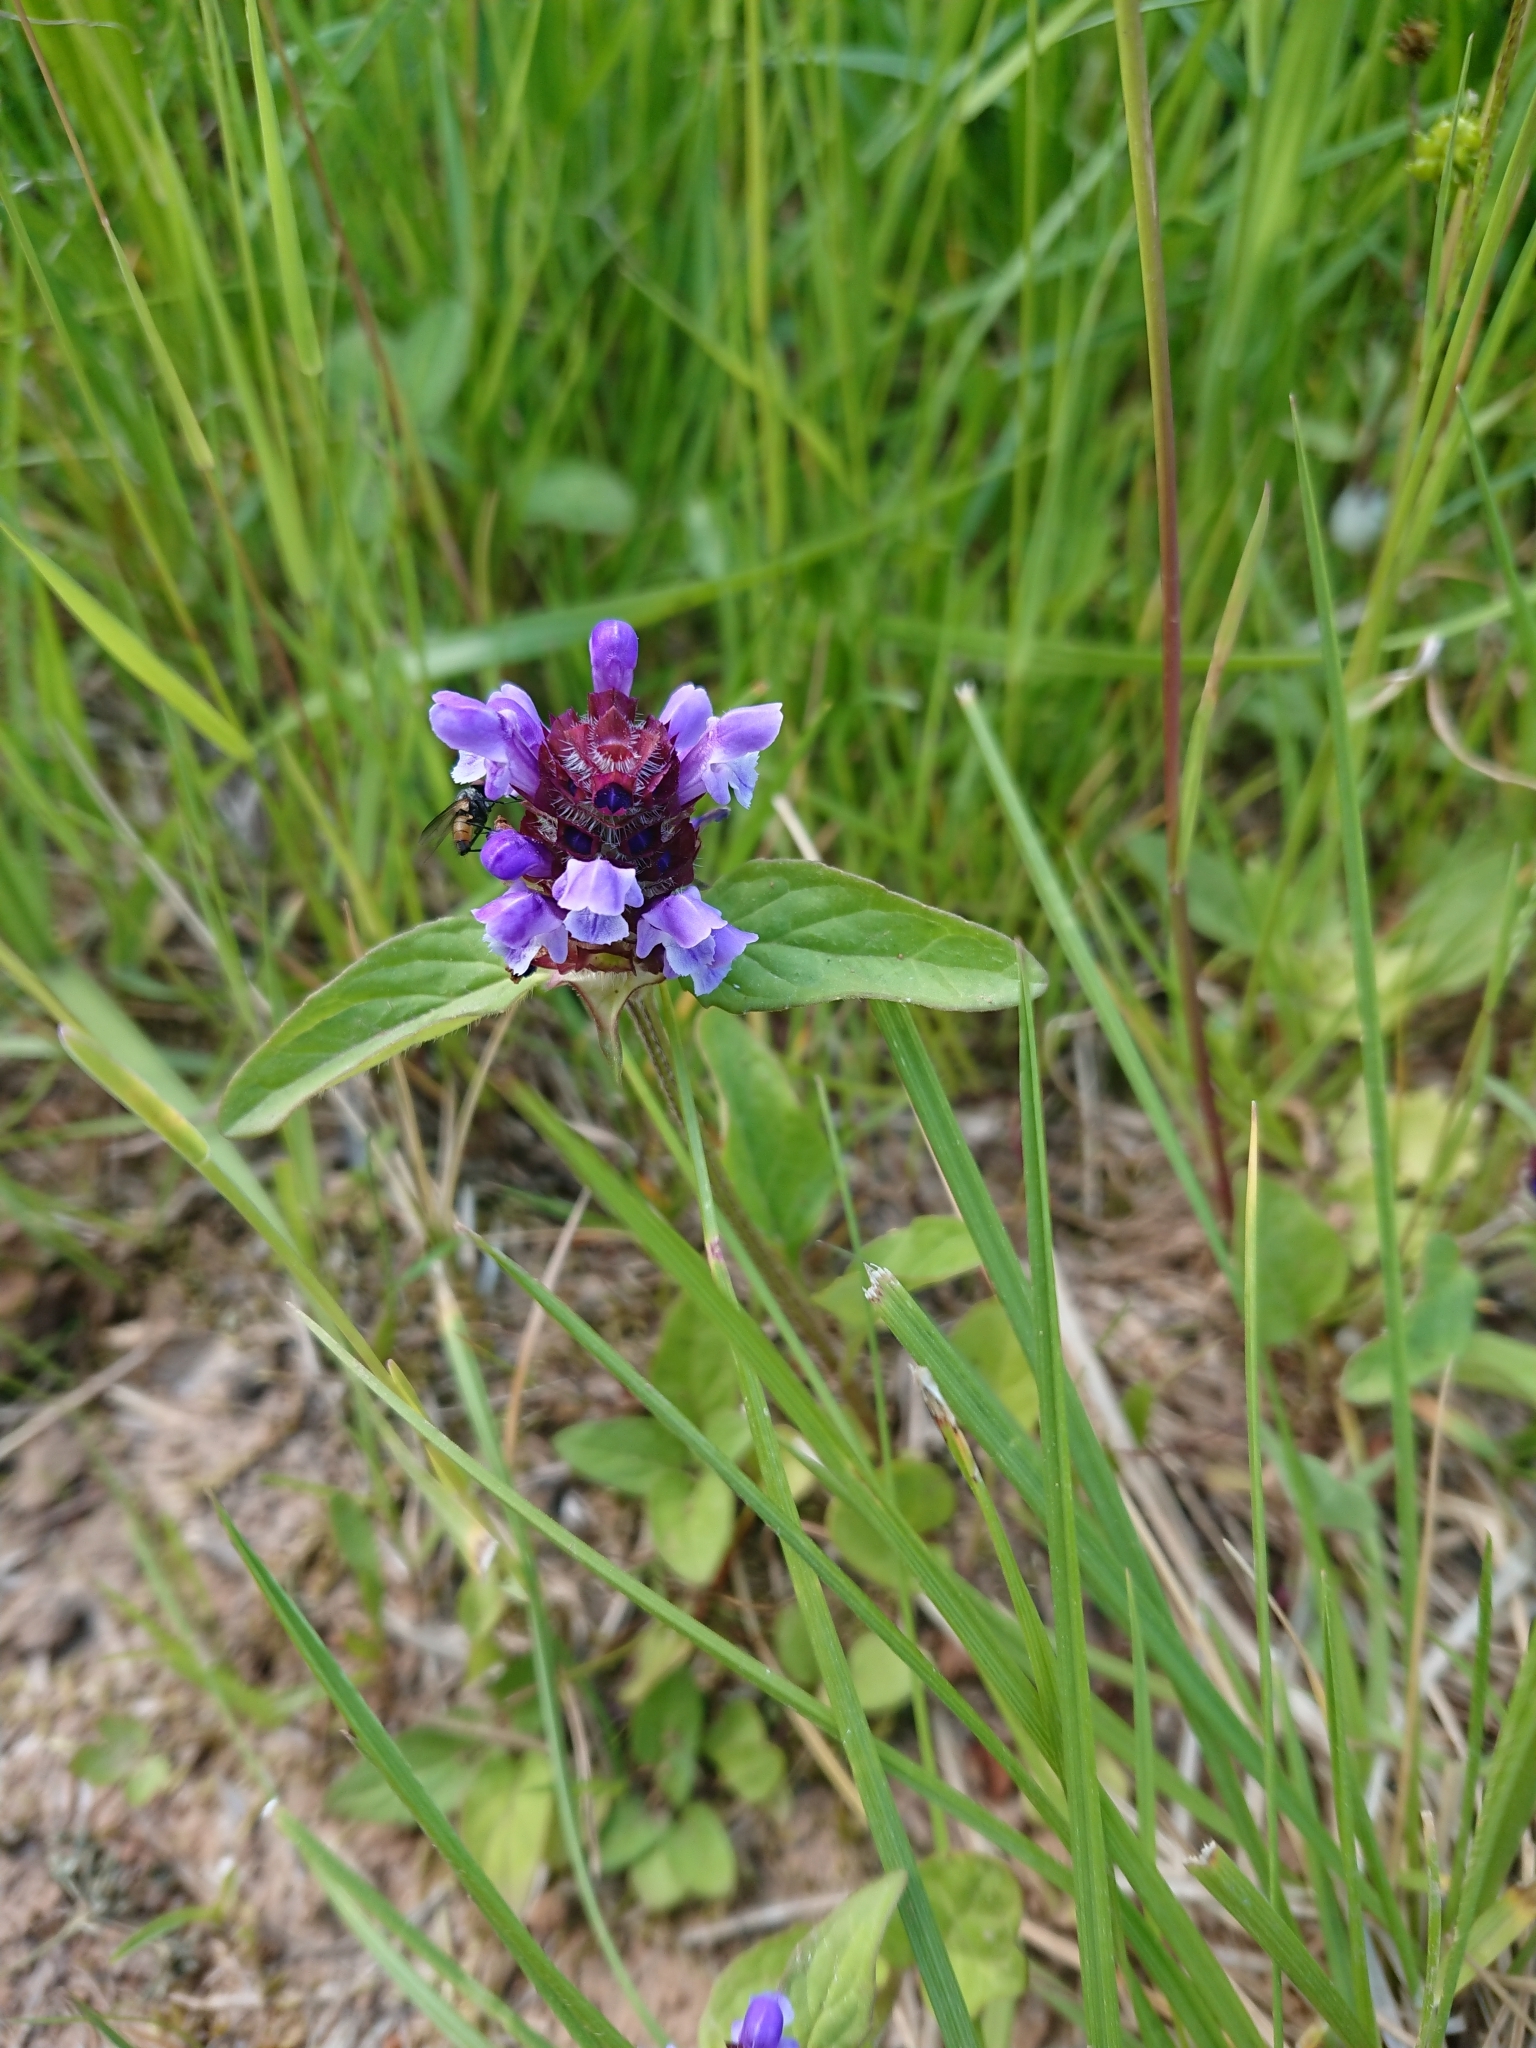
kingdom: Plantae
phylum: Tracheophyta
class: Magnoliopsida
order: Lamiales
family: Lamiaceae
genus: Prunella
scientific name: Prunella vulgaris
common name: Heal-all
